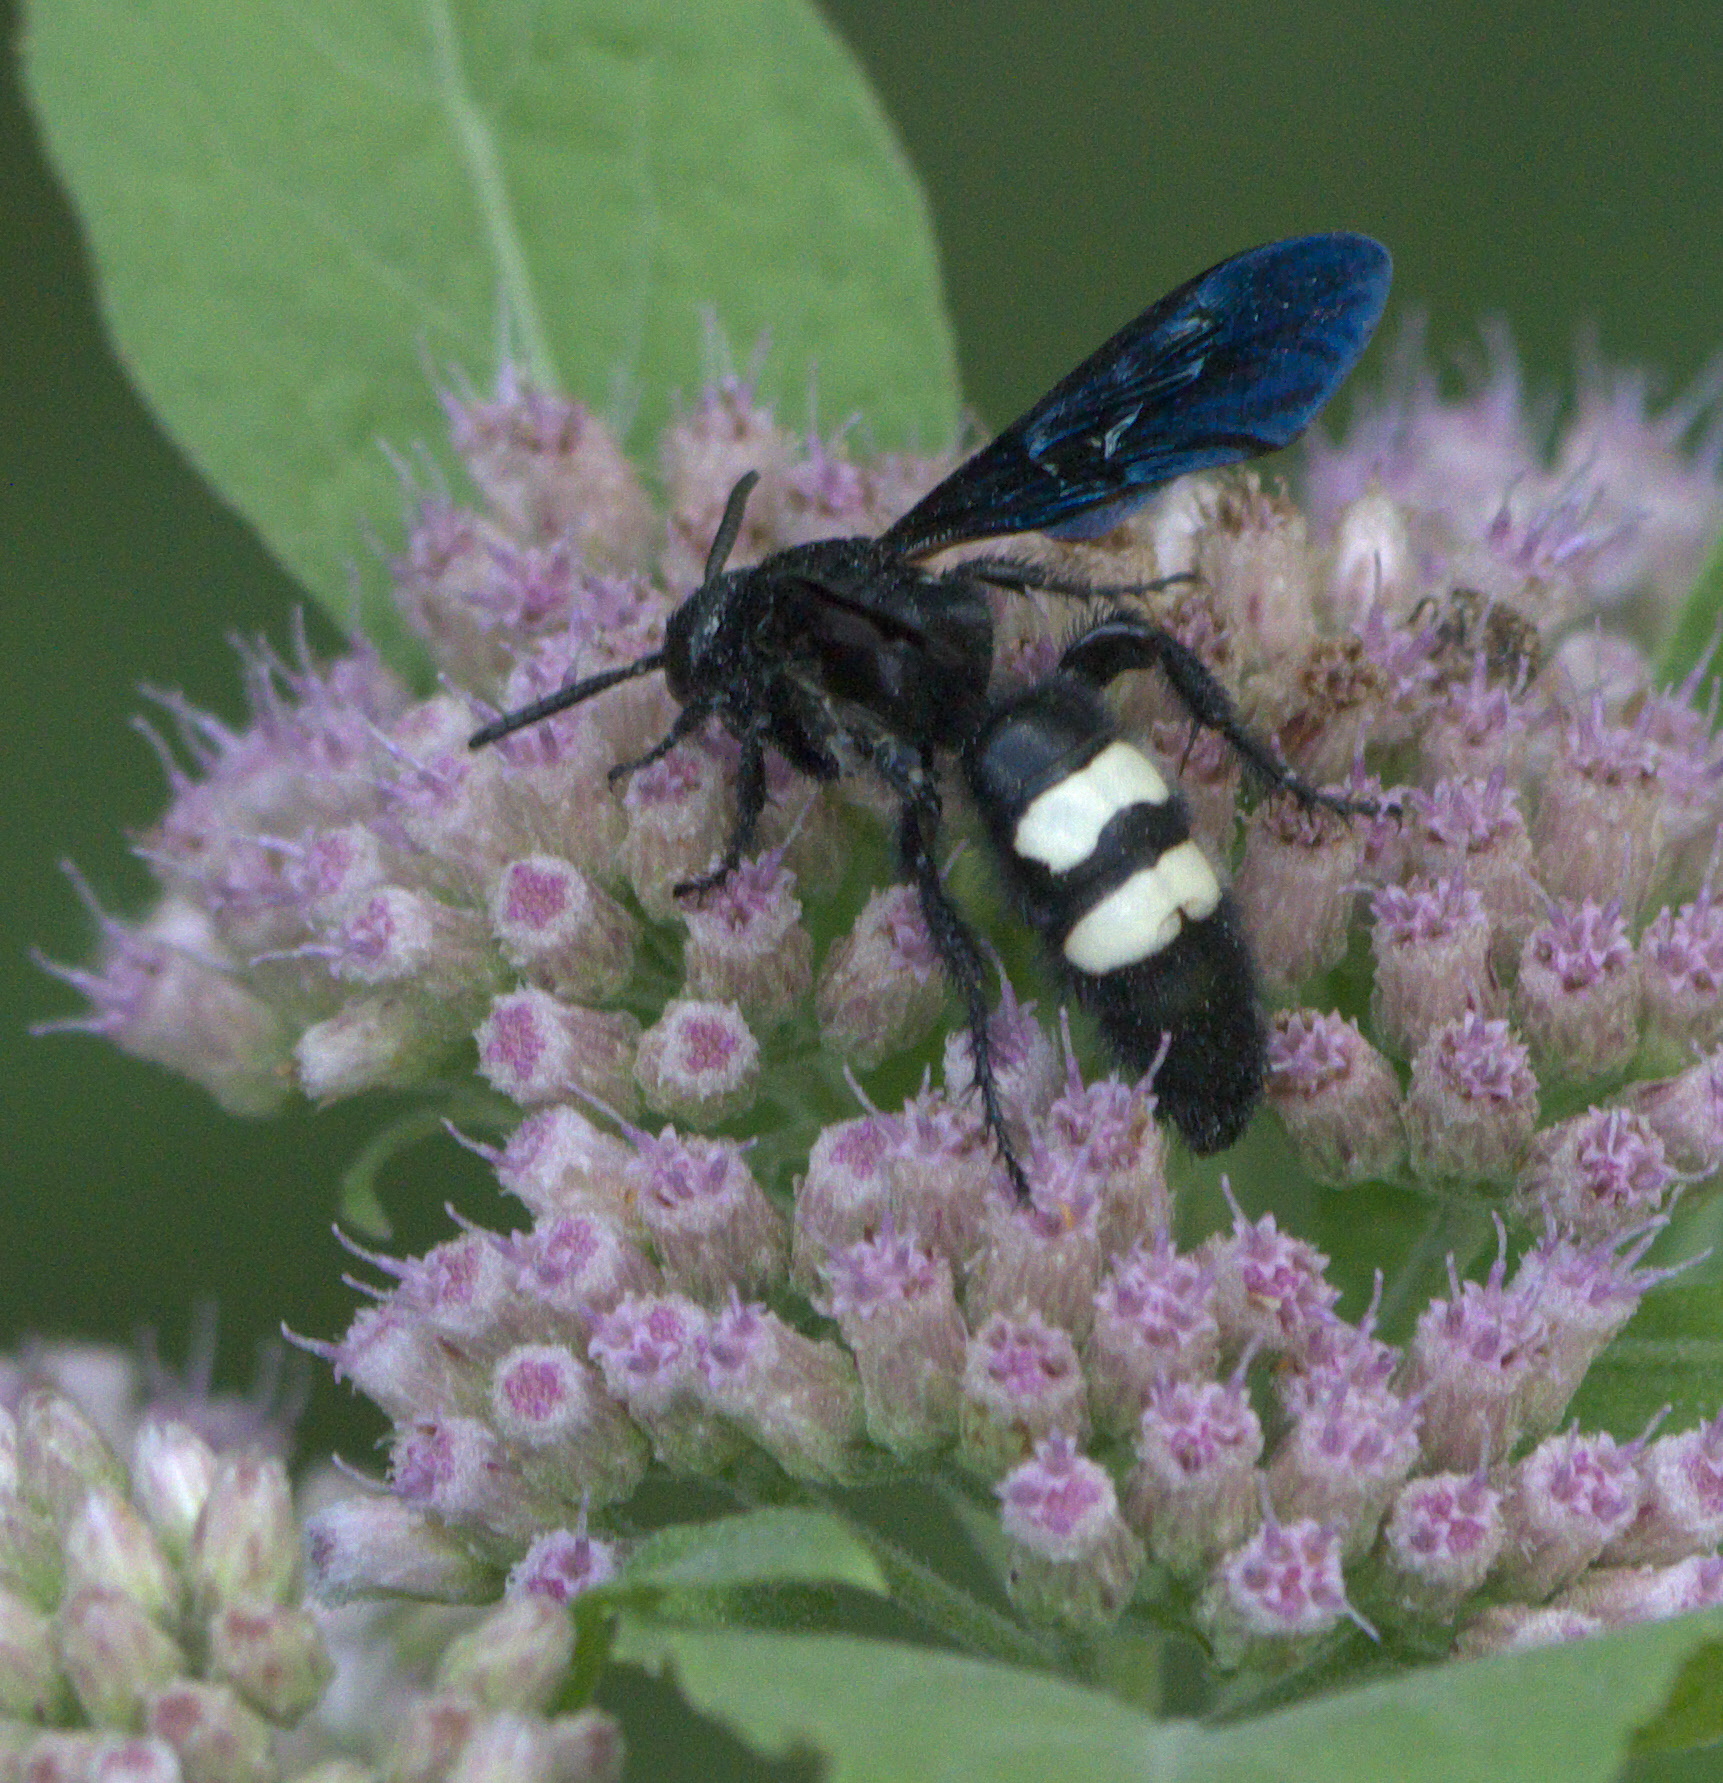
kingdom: Animalia
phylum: Arthropoda
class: Insecta
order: Hymenoptera
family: Scoliidae
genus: Scolia
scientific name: Scolia bicincta
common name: Double-banded scoliid wasp
